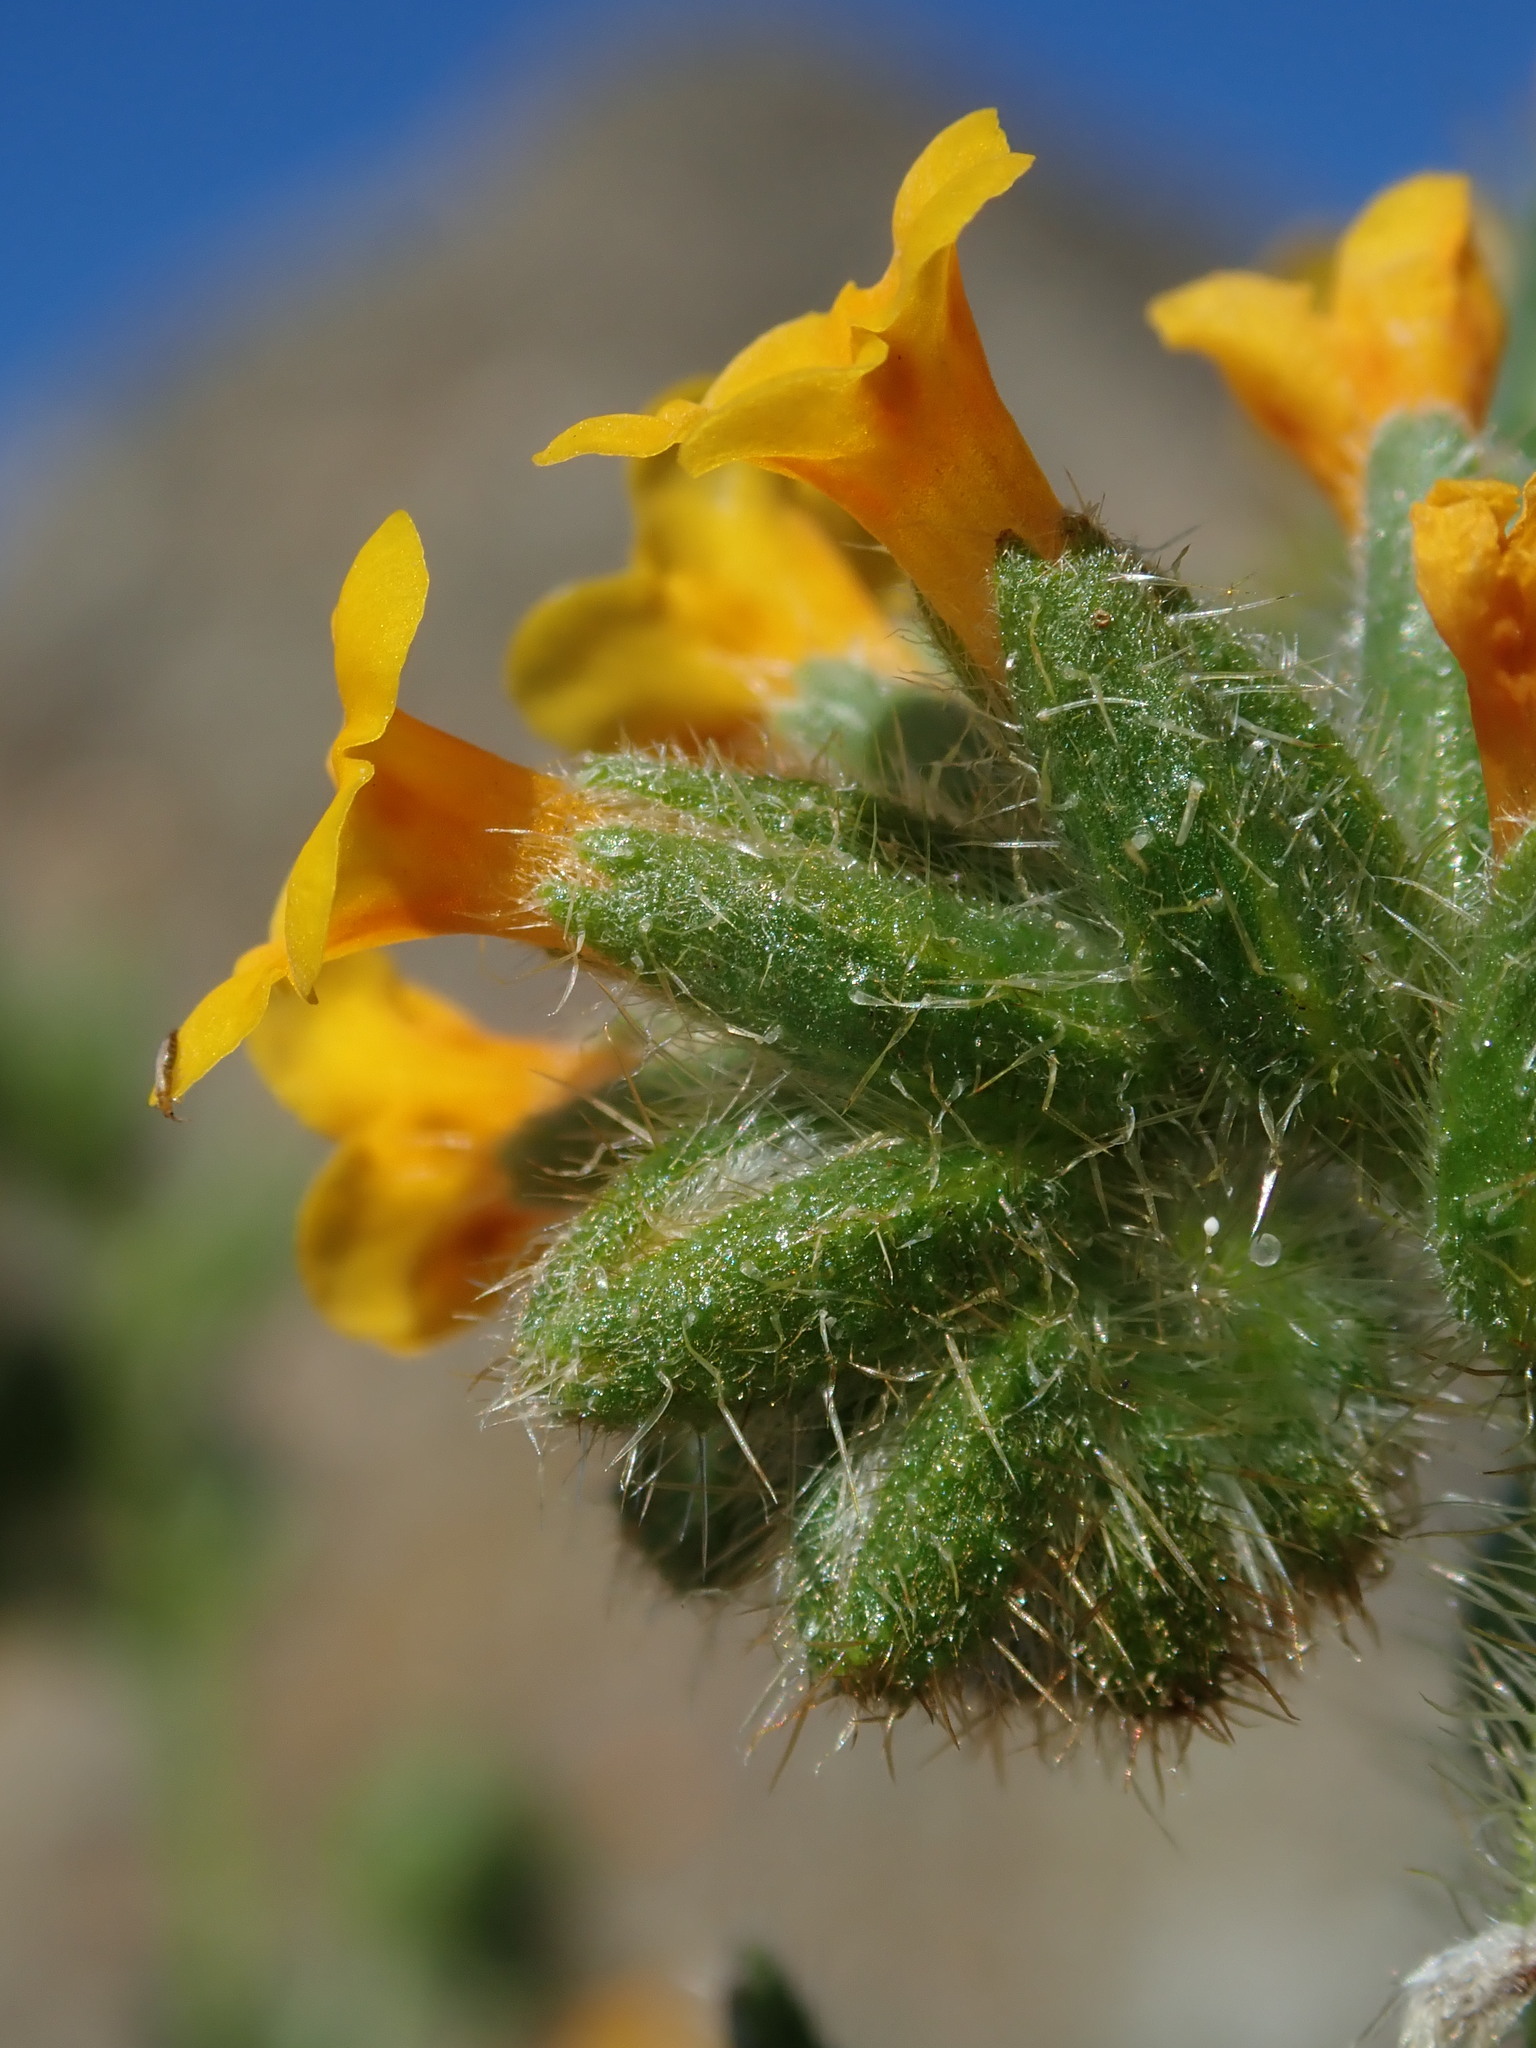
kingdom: Plantae
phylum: Tracheophyta
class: Magnoliopsida
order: Boraginales
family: Boraginaceae
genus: Amsinckia
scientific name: Amsinckia tessellata
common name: Tessellate fiddleneck
